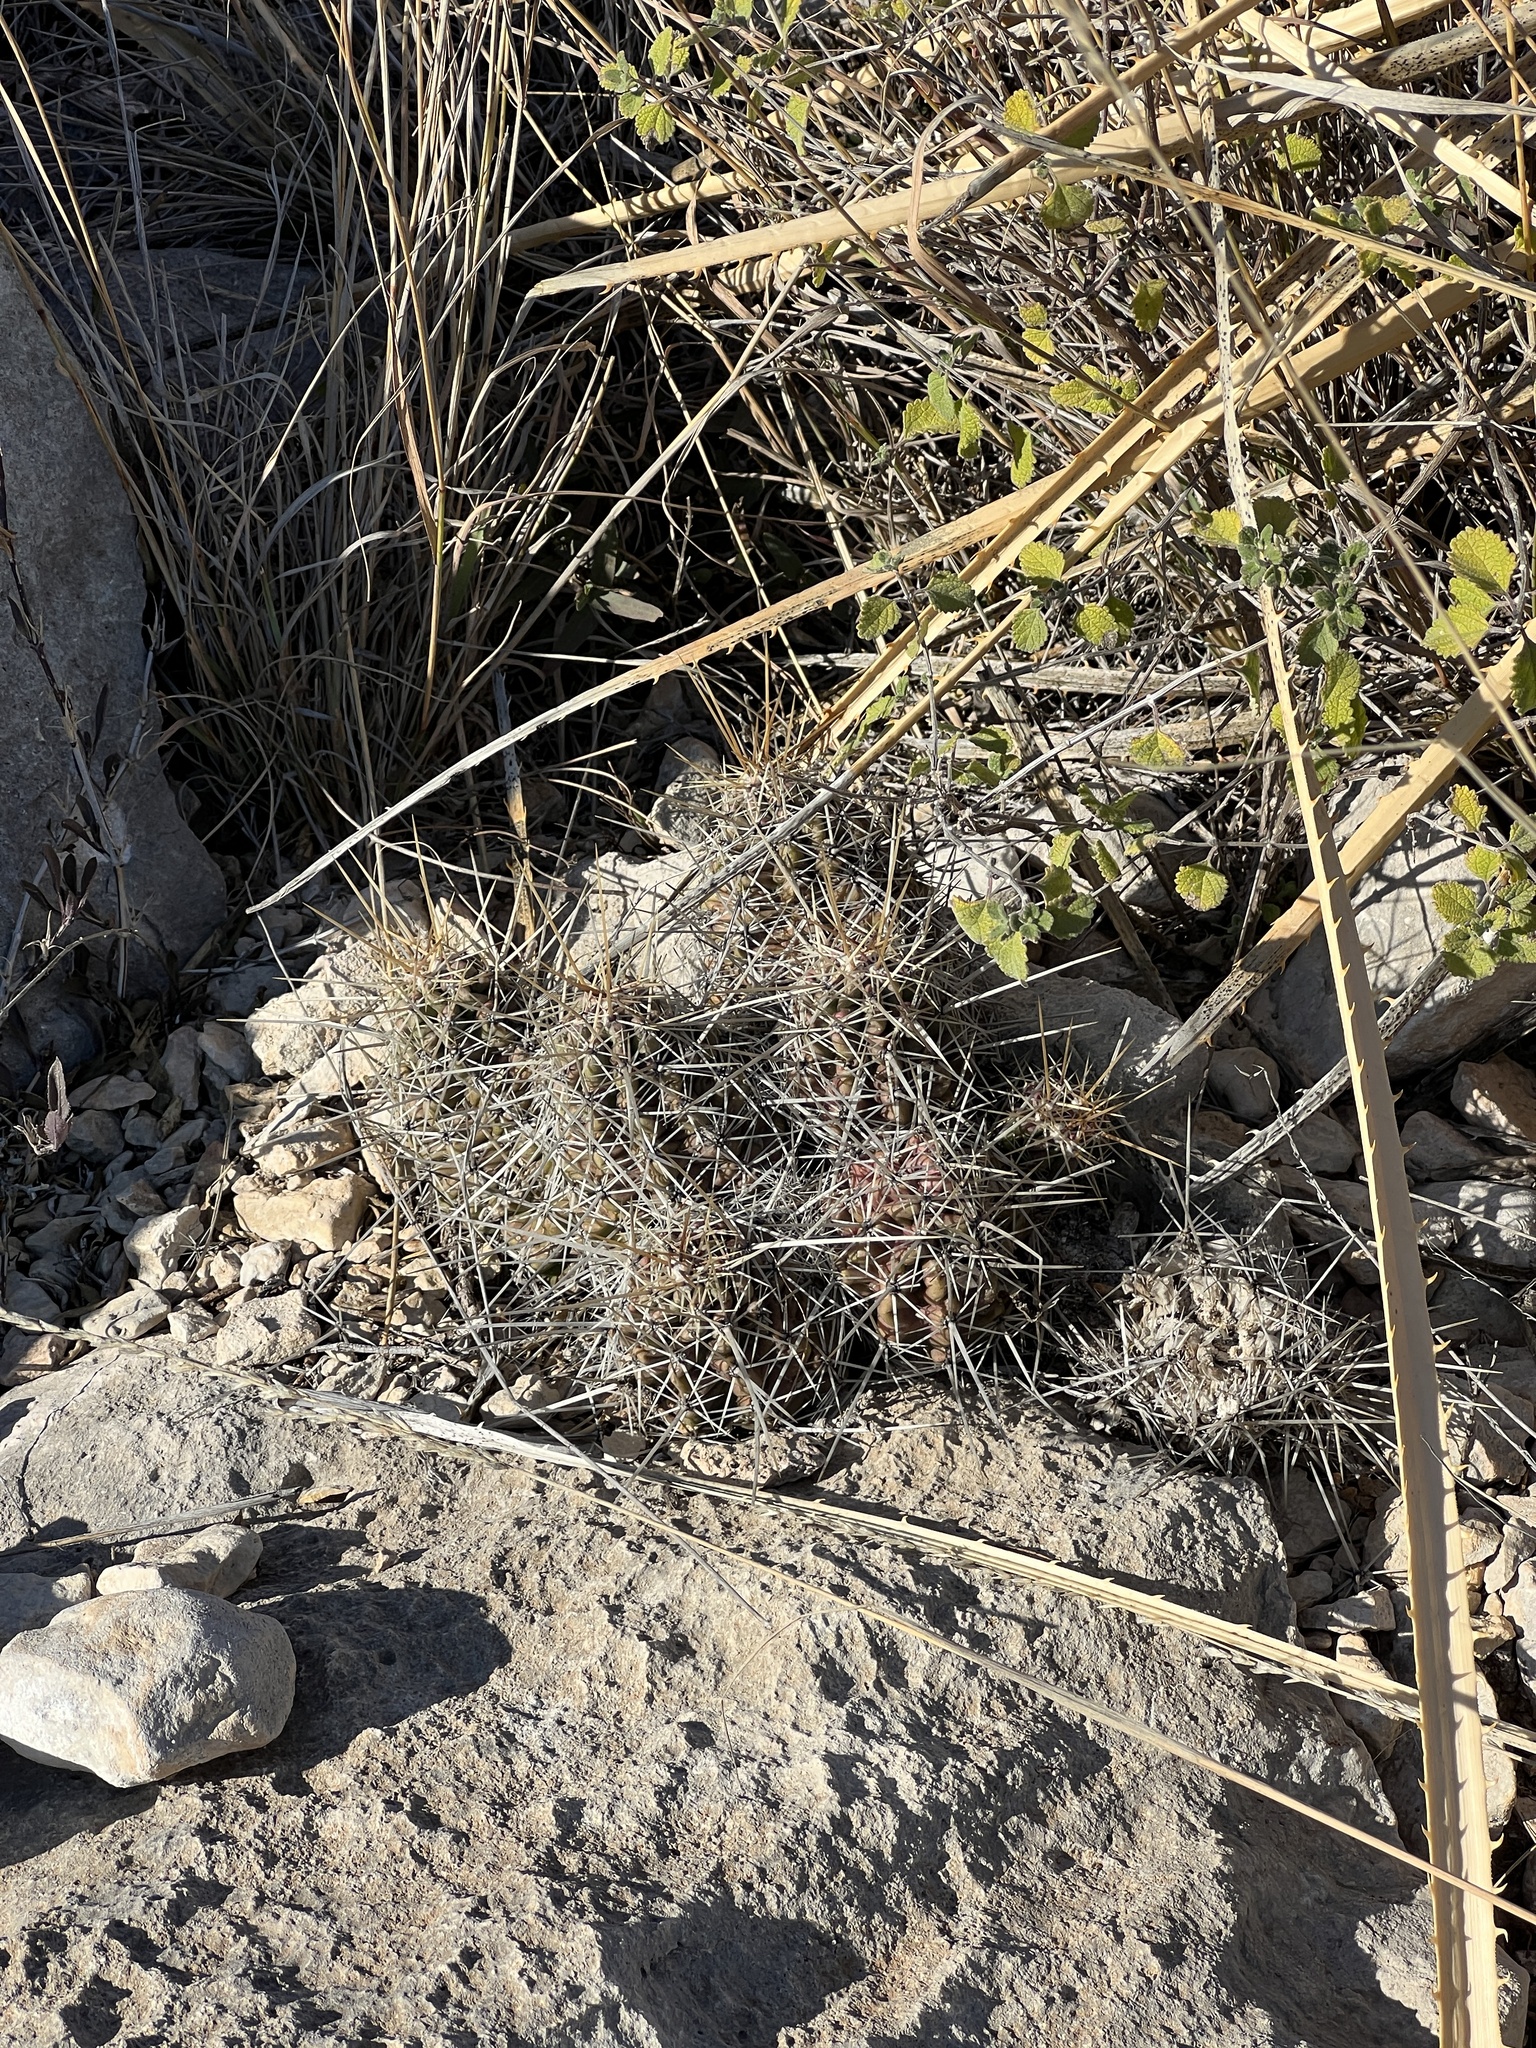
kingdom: Plantae
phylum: Tracheophyta
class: Magnoliopsida
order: Caryophyllales
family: Cactaceae
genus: Echinocereus
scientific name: Echinocereus enneacanthus
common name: Pitaya
